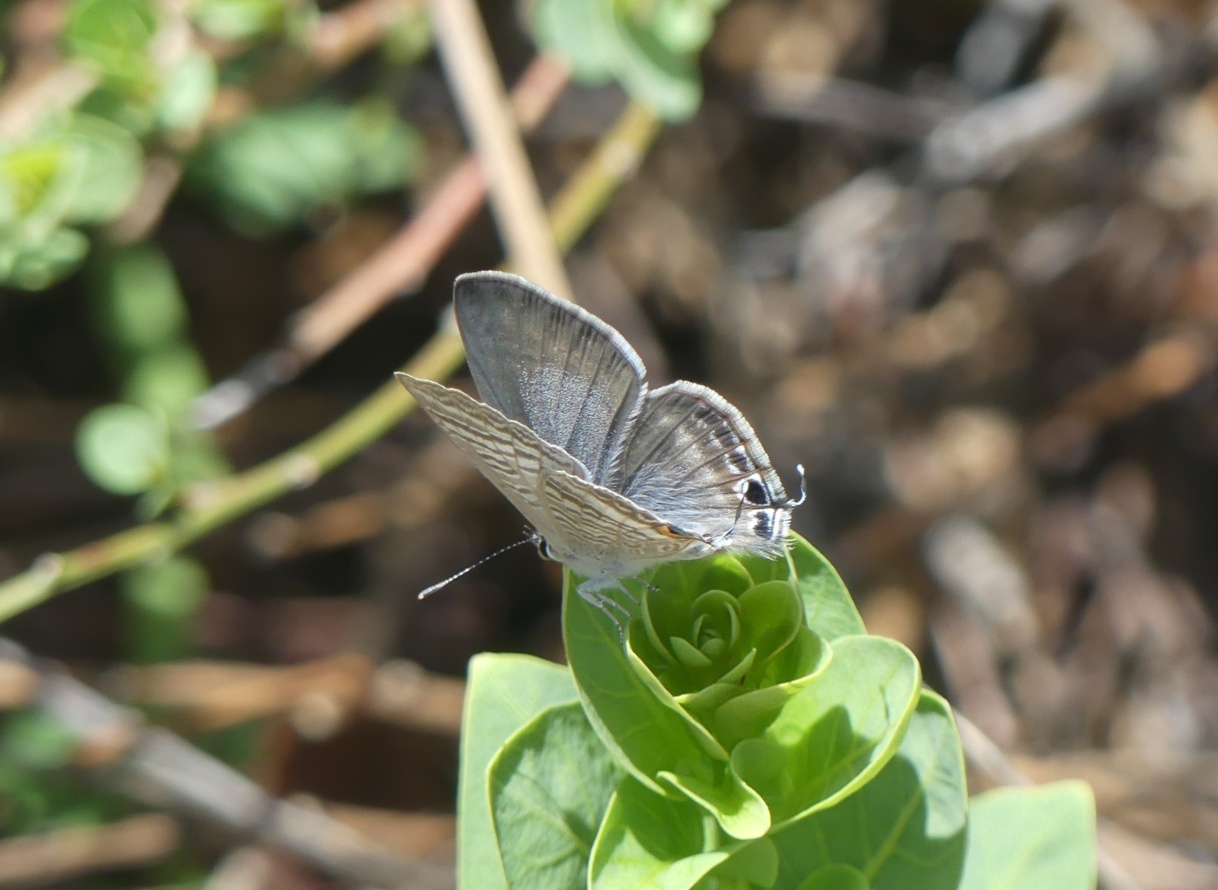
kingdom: Animalia
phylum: Arthropoda
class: Insecta
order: Lepidoptera
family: Lycaenidae
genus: Lampides
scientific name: Lampides boeticus
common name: Long-tailed blue
